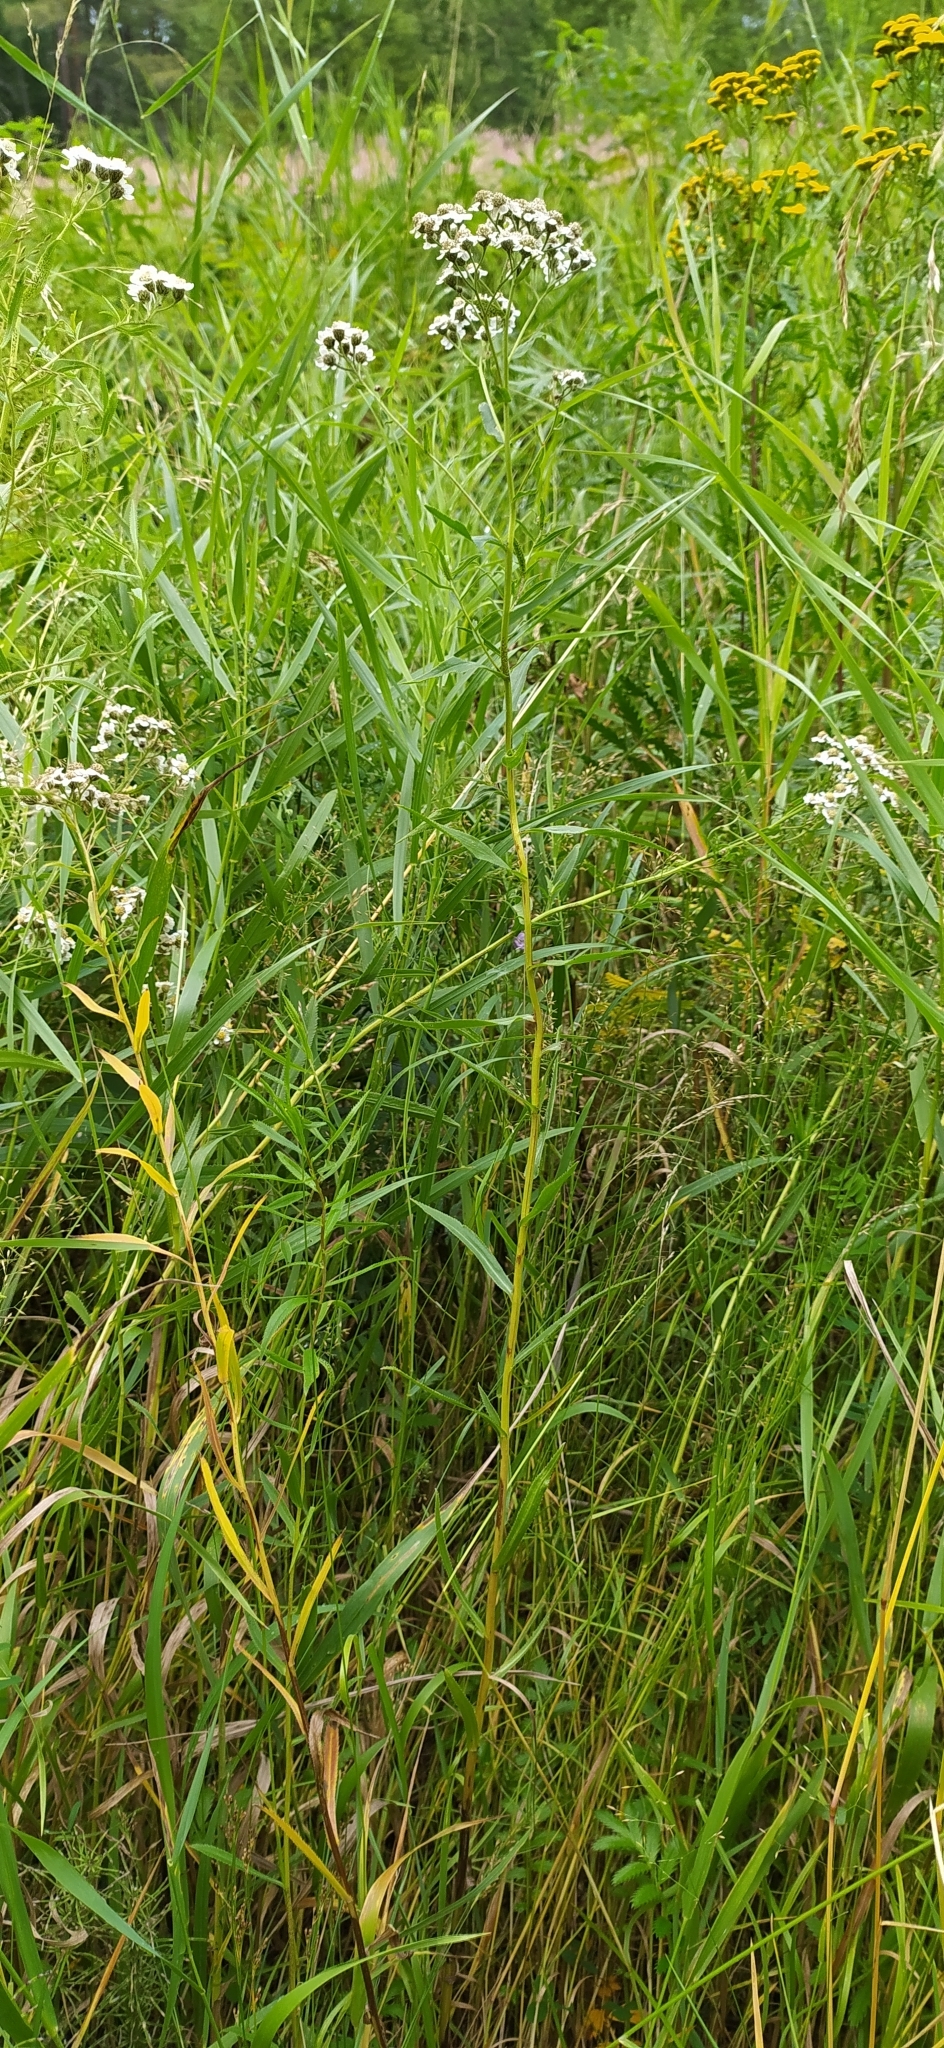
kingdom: Plantae
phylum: Tracheophyta
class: Magnoliopsida
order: Asterales
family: Asteraceae
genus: Achillea
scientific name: Achillea salicifolia
